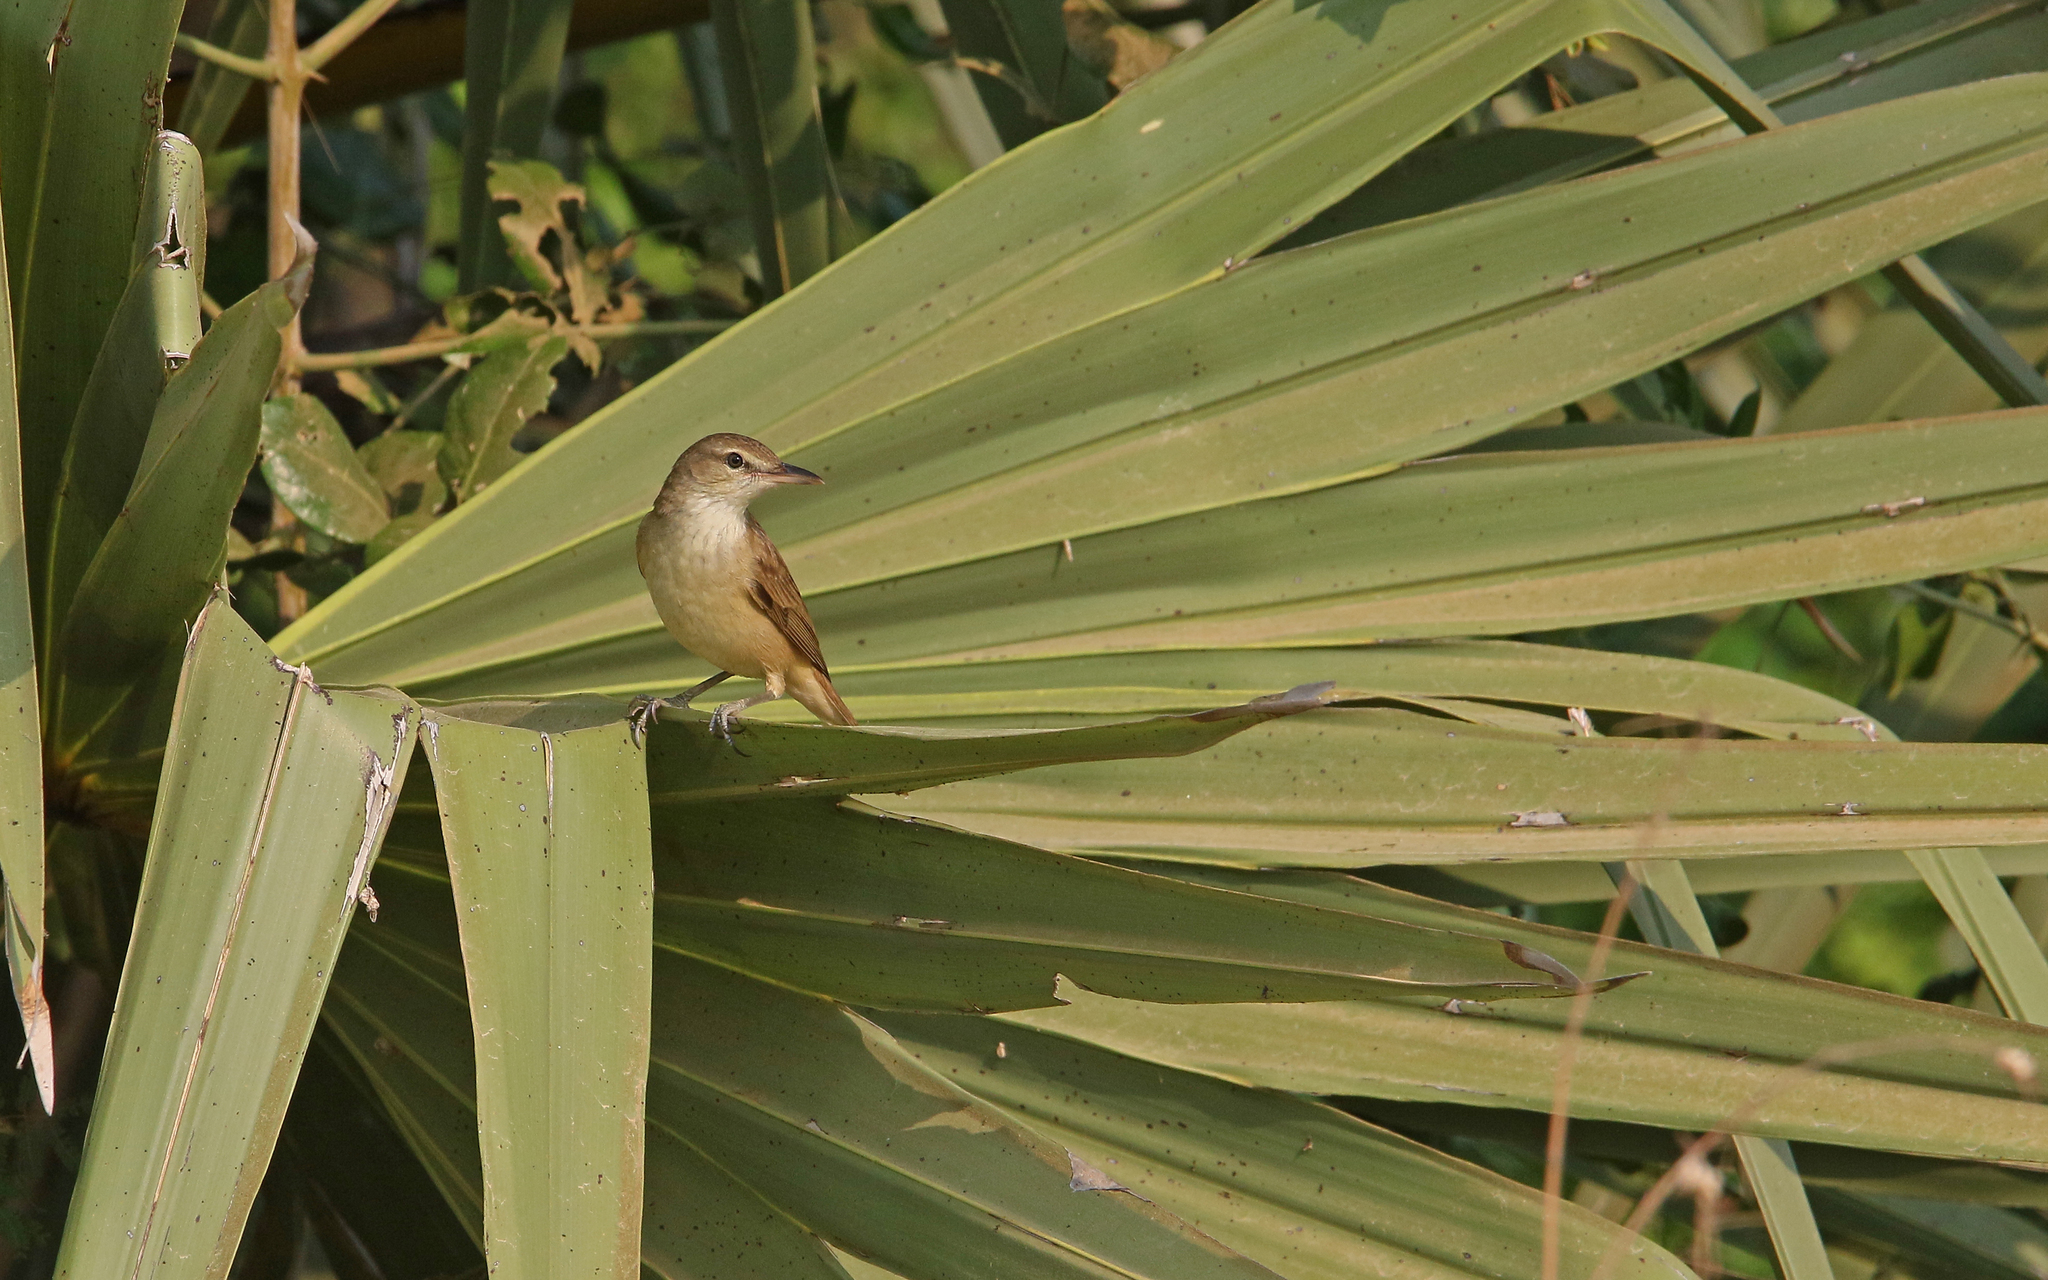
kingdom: Animalia
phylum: Chordata
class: Aves
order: Passeriformes
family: Acrocephalidae
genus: Acrocephalus
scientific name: Acrocephalus orientalis
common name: Oriental reed warbler
